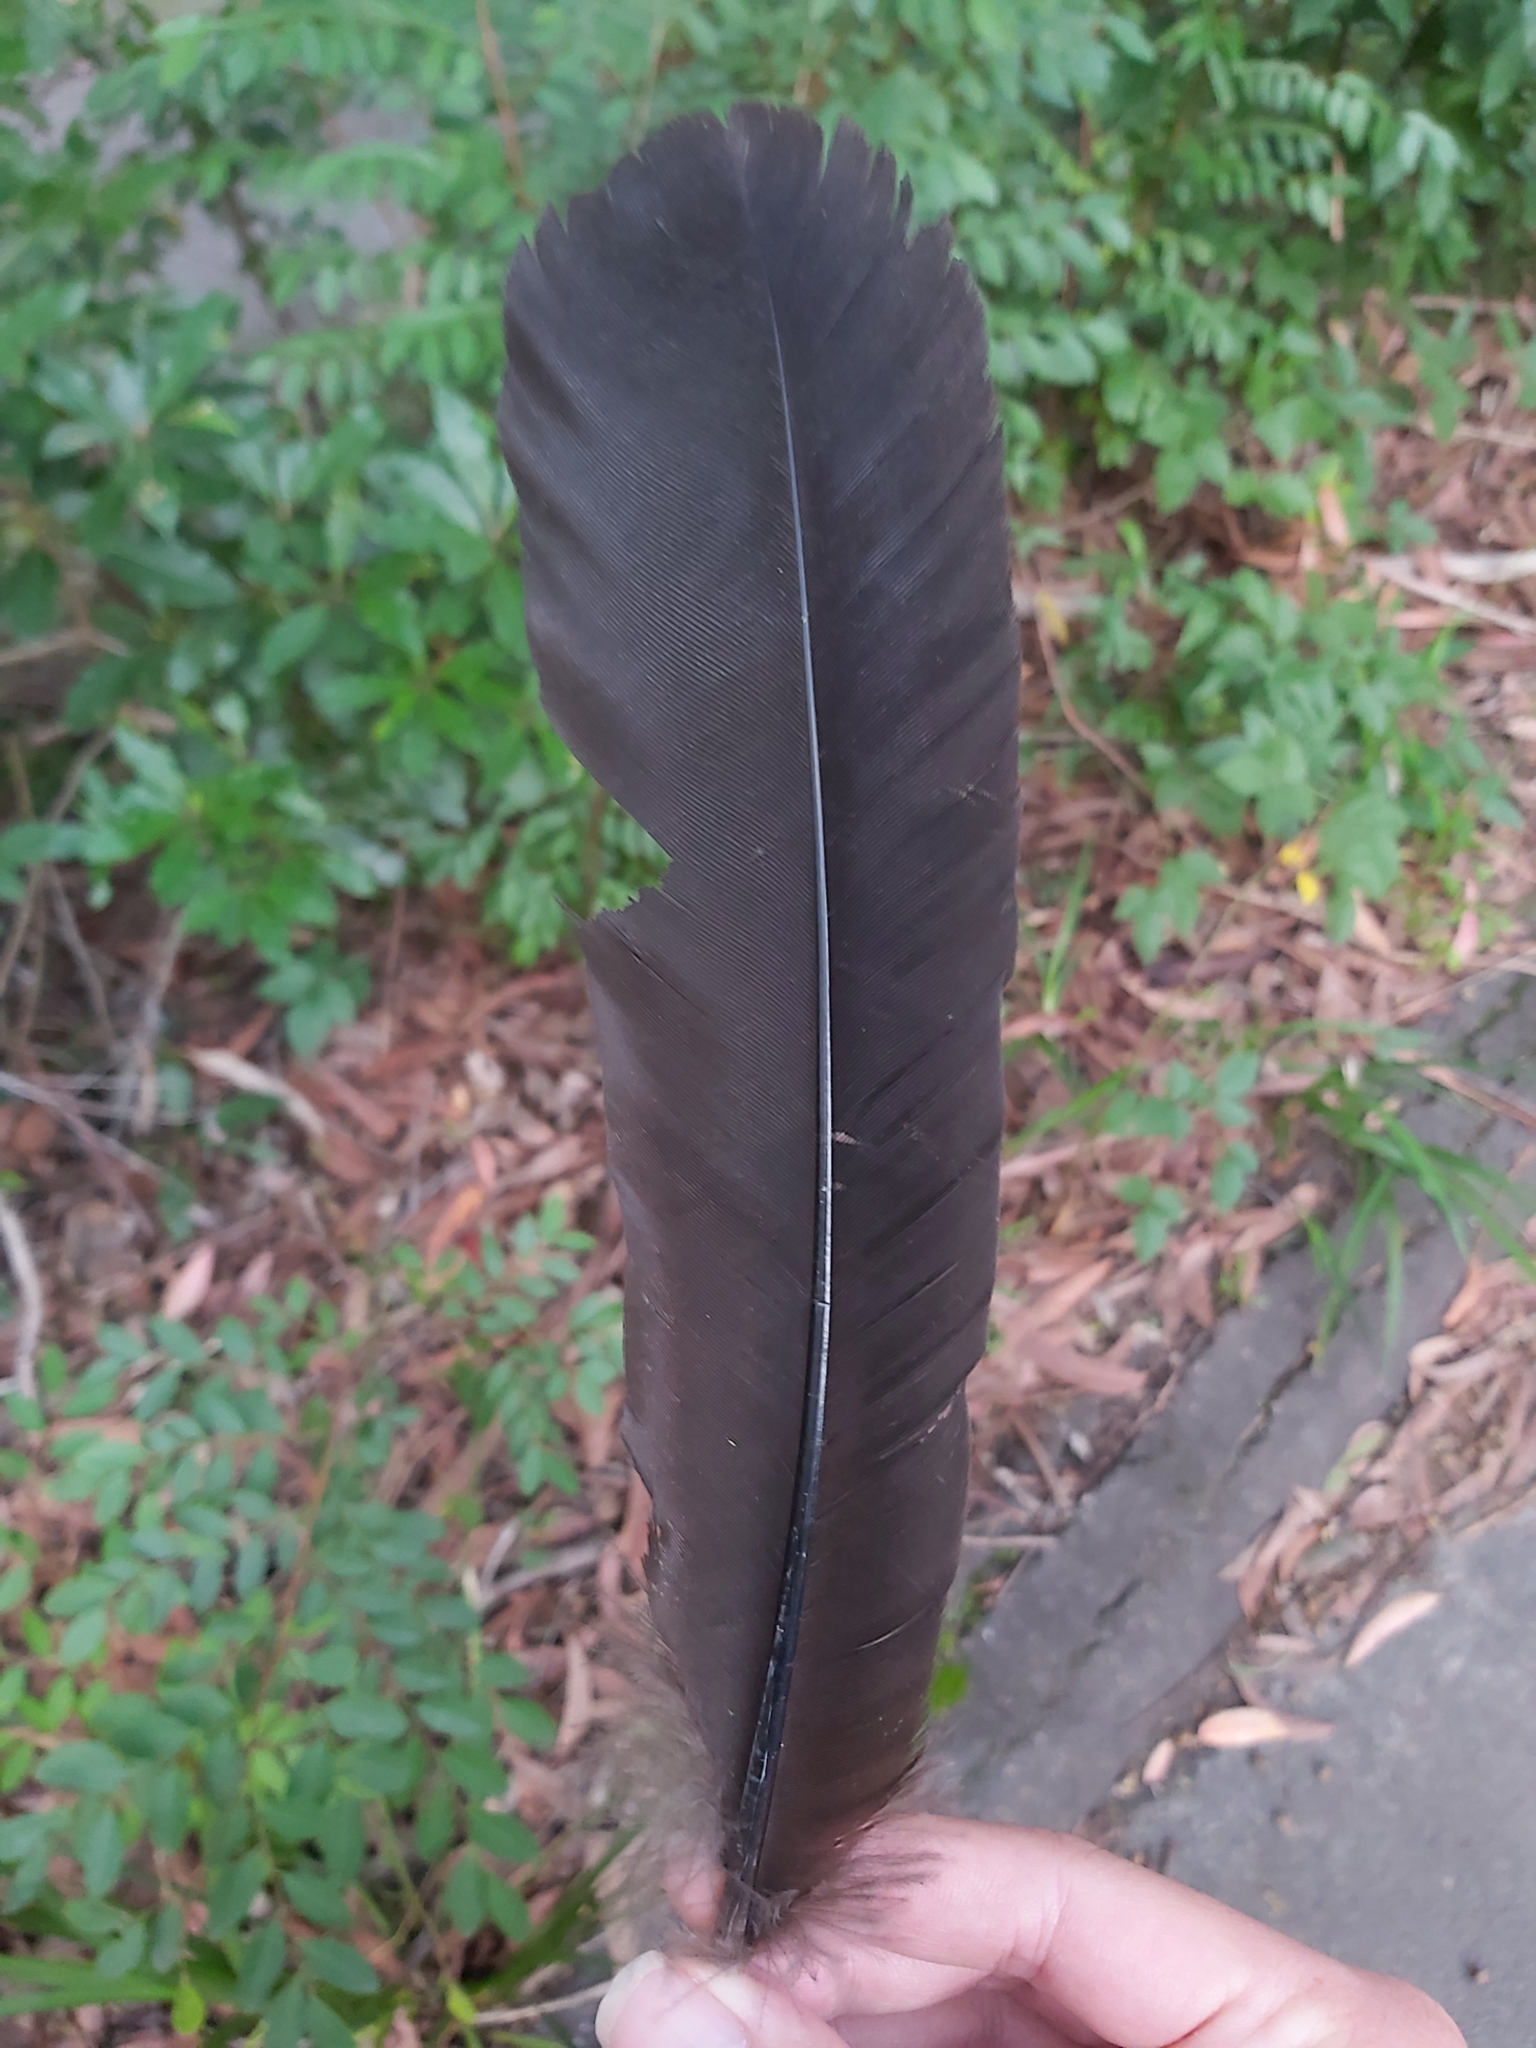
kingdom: Animalia
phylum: Chordata
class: Aves
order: Galliformes
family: Megapodiidae
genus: Alectura
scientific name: Alectura lathami
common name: Australian brushturkey
